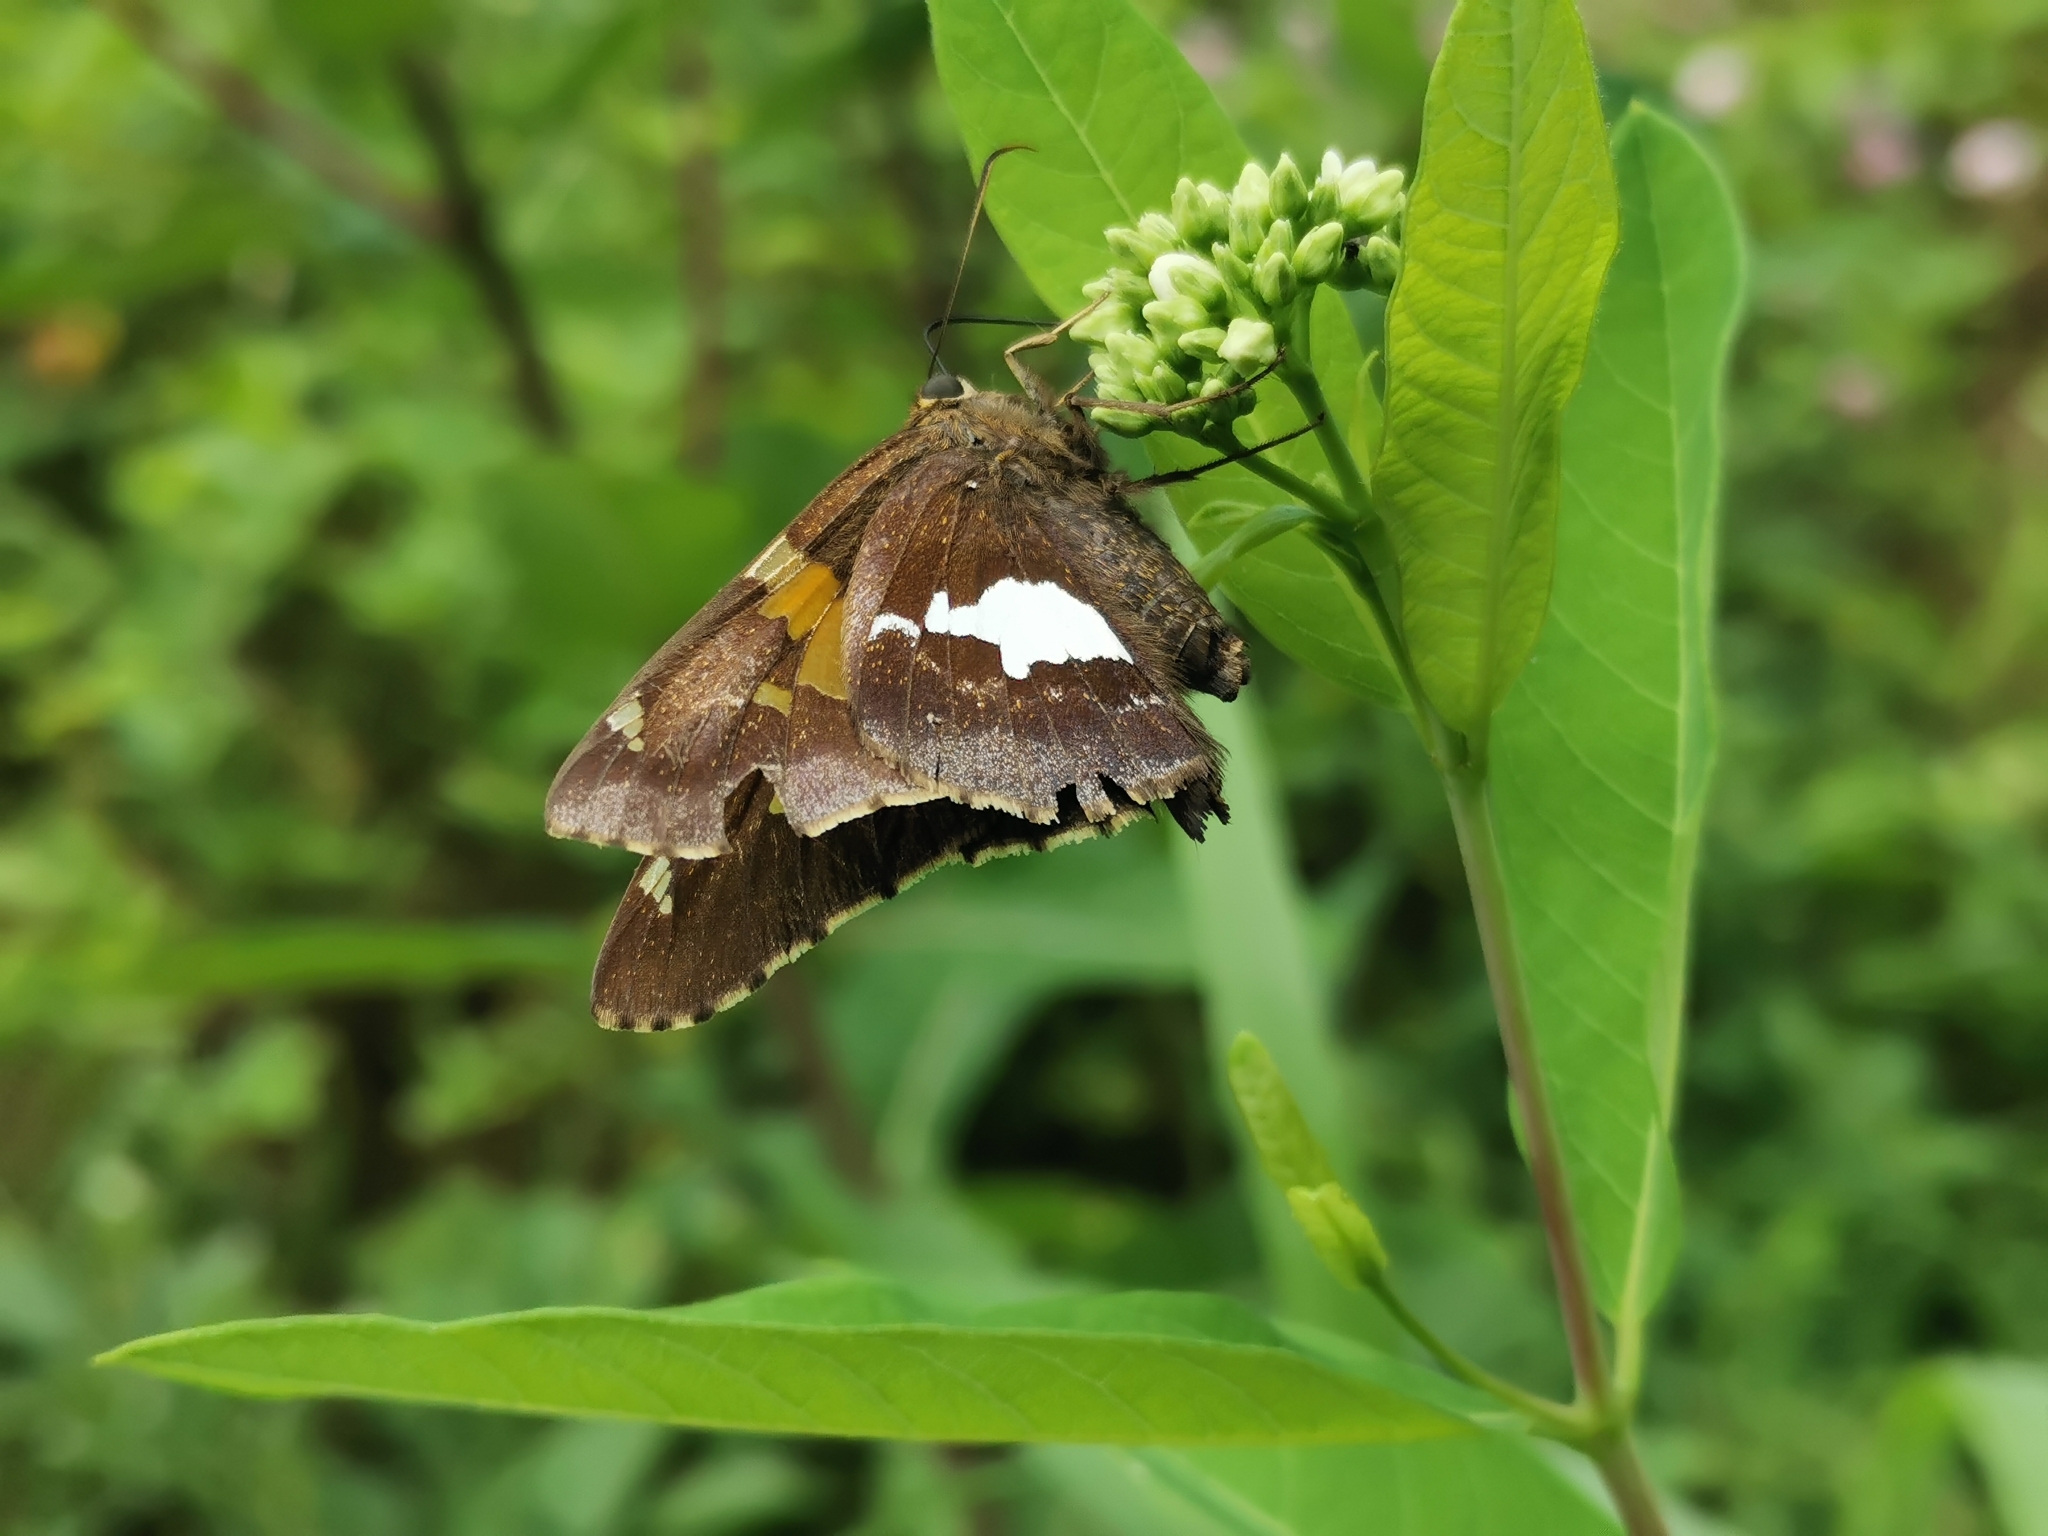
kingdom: Animalia
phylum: Arthropoda
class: Insecta
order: Lepidoptera
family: Hesperiidae
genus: Epargyreus
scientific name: Epargyreus clarus
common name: Silver-spotted skipper
